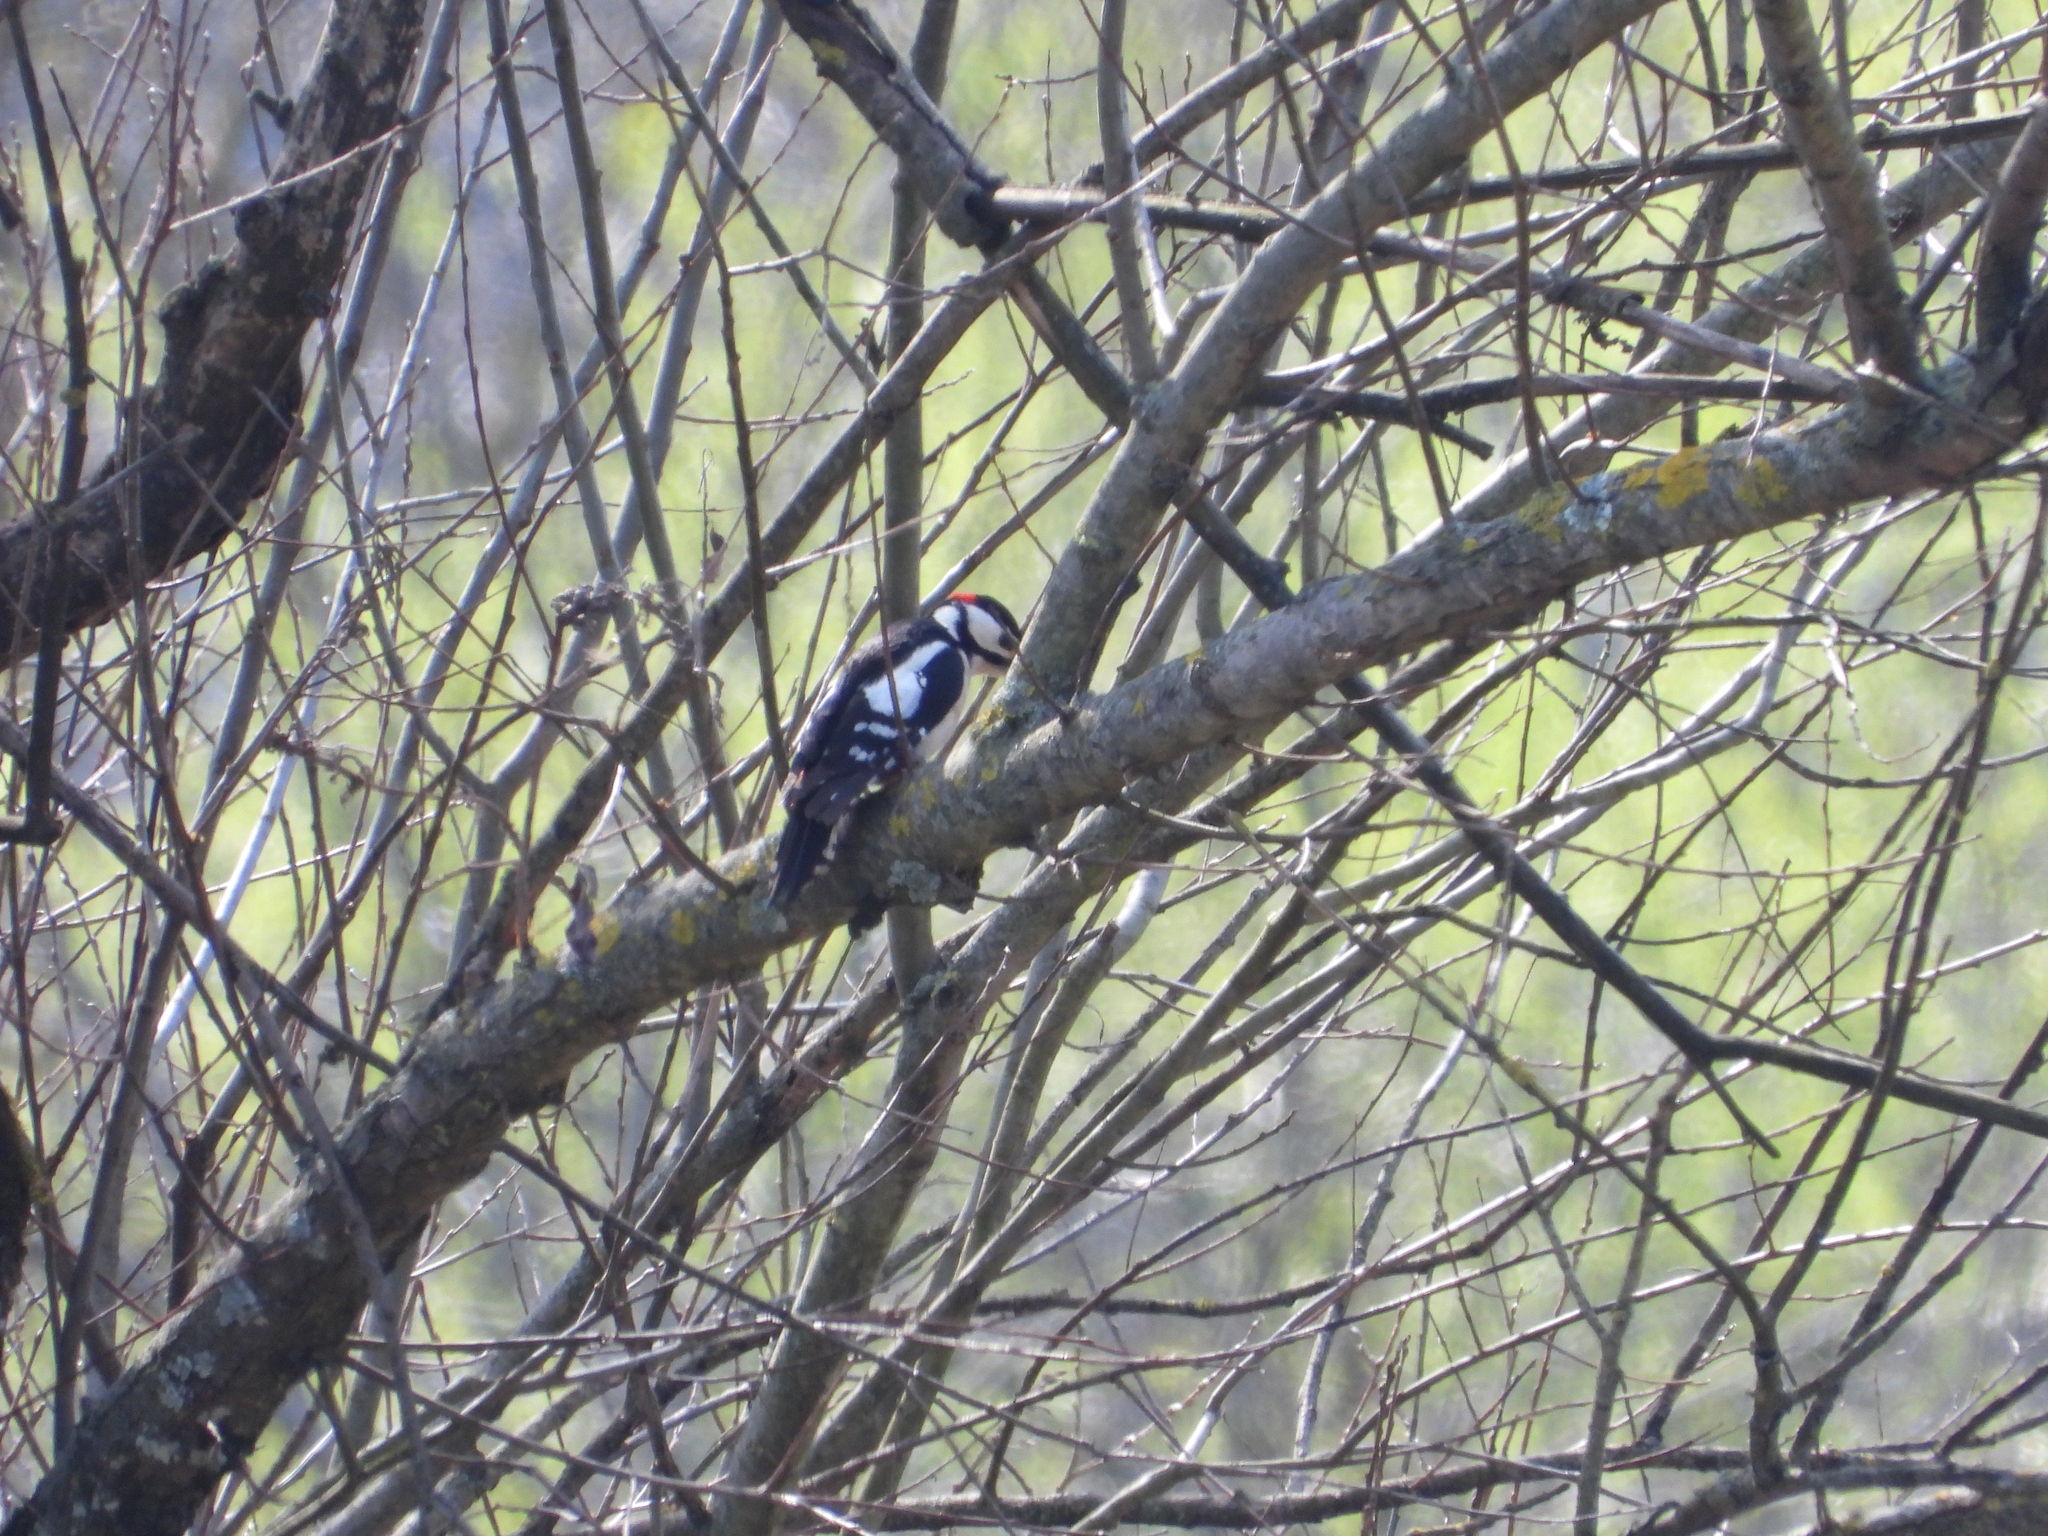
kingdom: Animalia
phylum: Chordata
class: Aves
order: Piciformes
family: Picidae
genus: Dendrocopos
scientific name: Dendrocopos major
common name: Great spotted woodpecker
